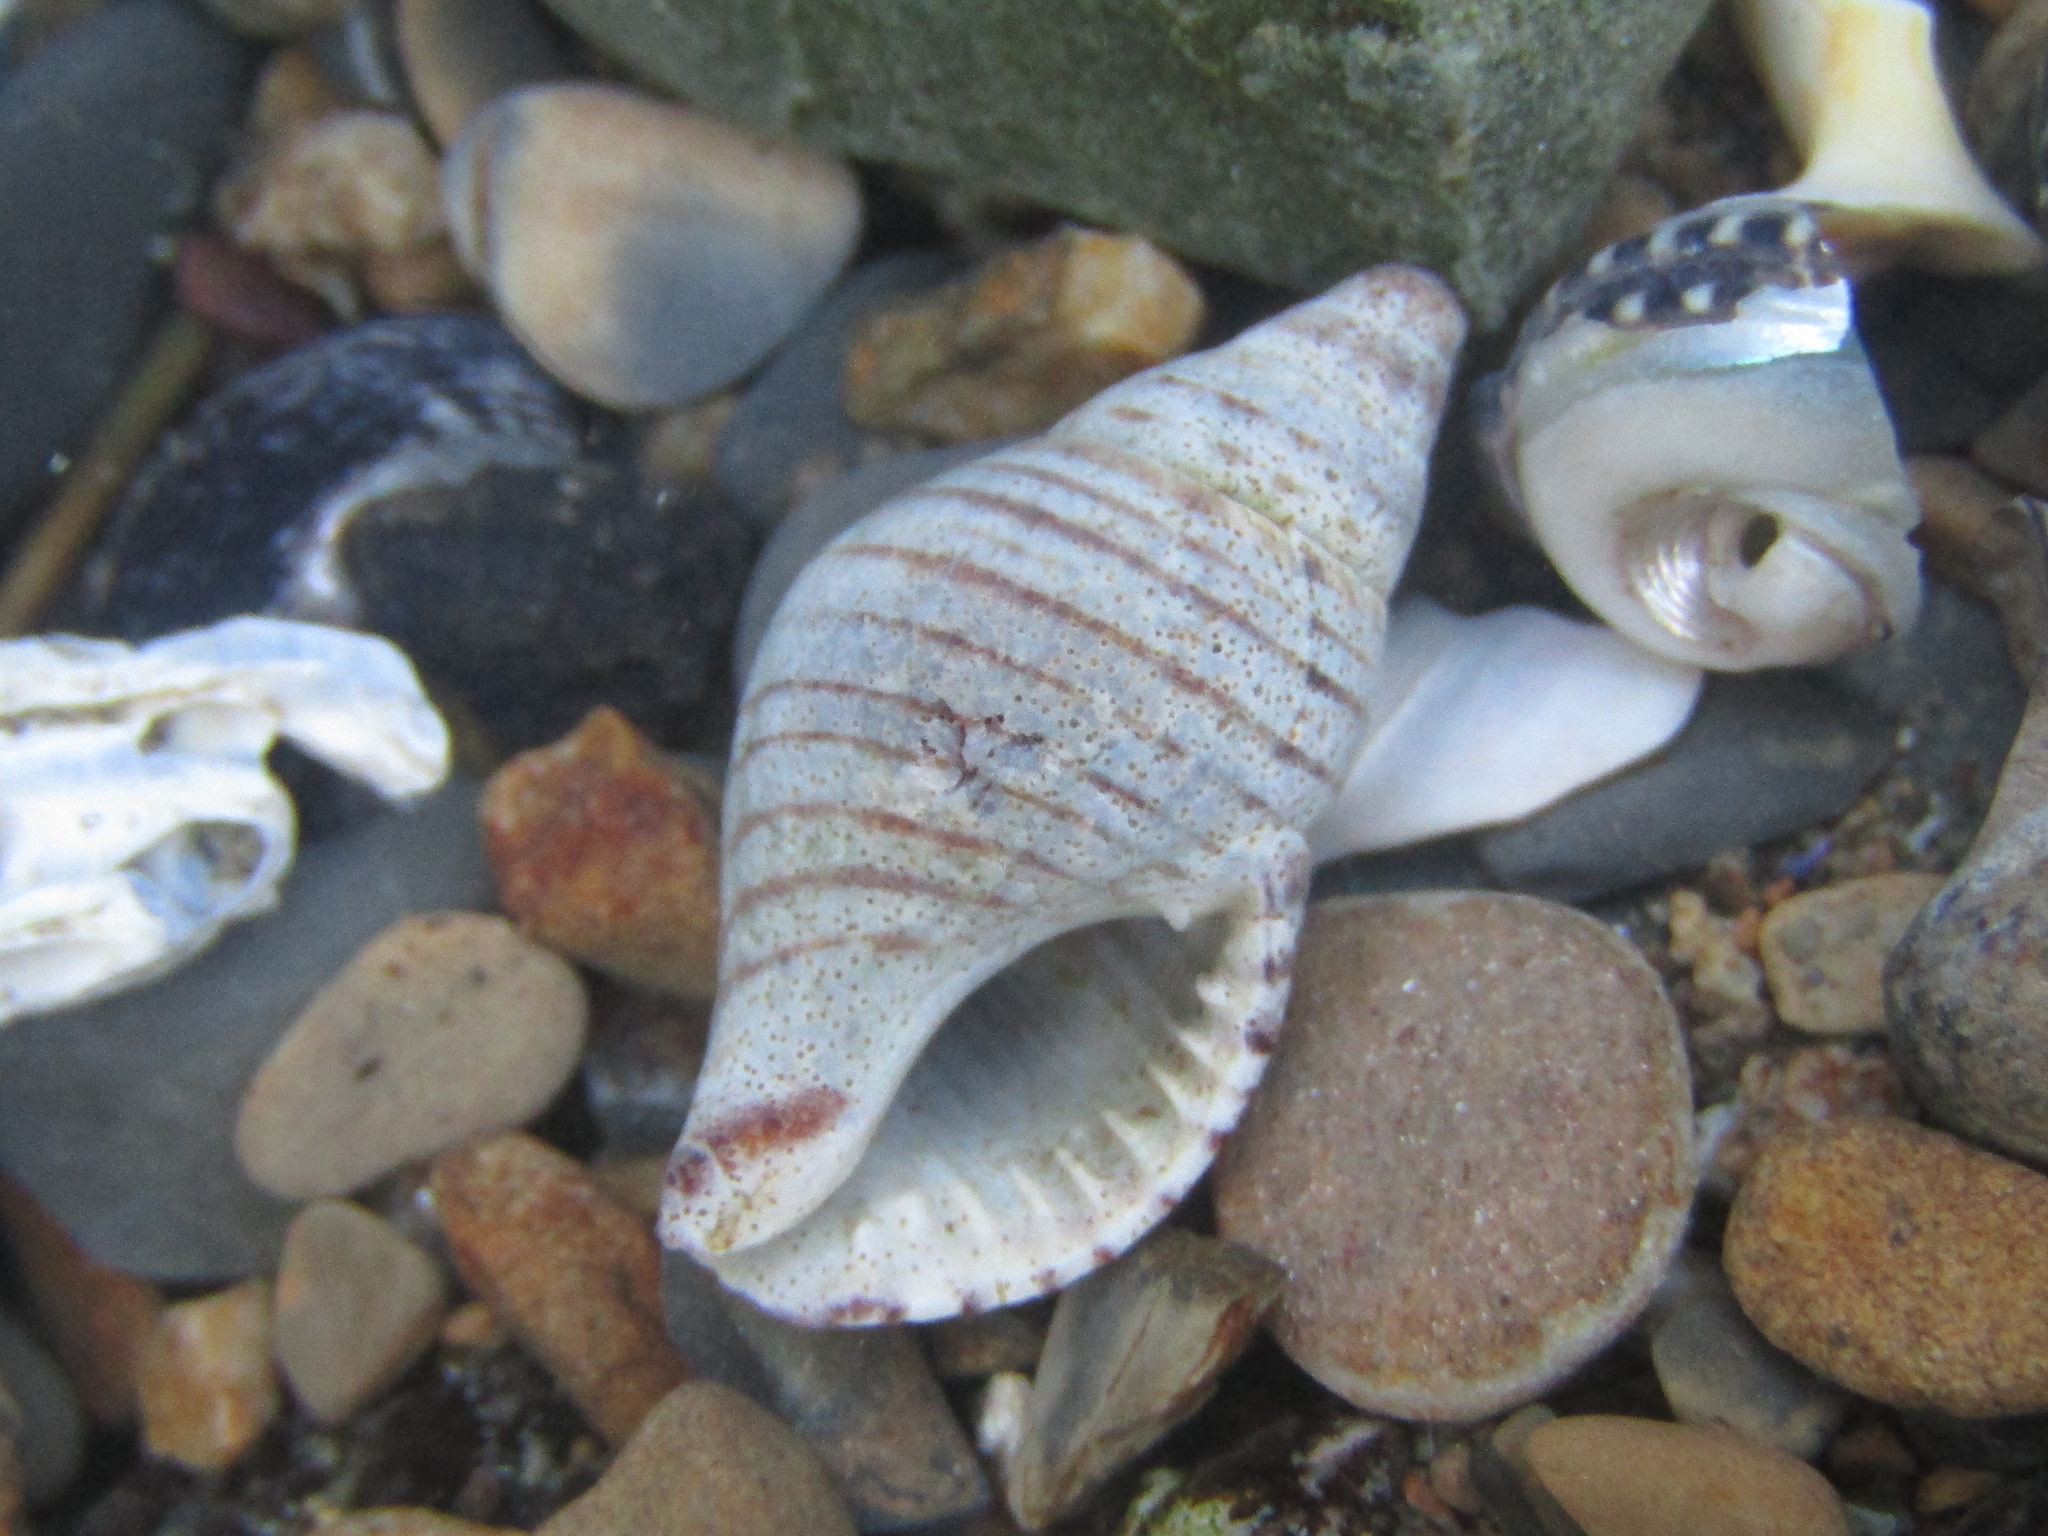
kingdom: Animalia
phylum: Mollusca
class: Gastropoda
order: Neogastropoda
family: Tudiclidae
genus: Buccinulum
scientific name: Buccinulum littorinoides
